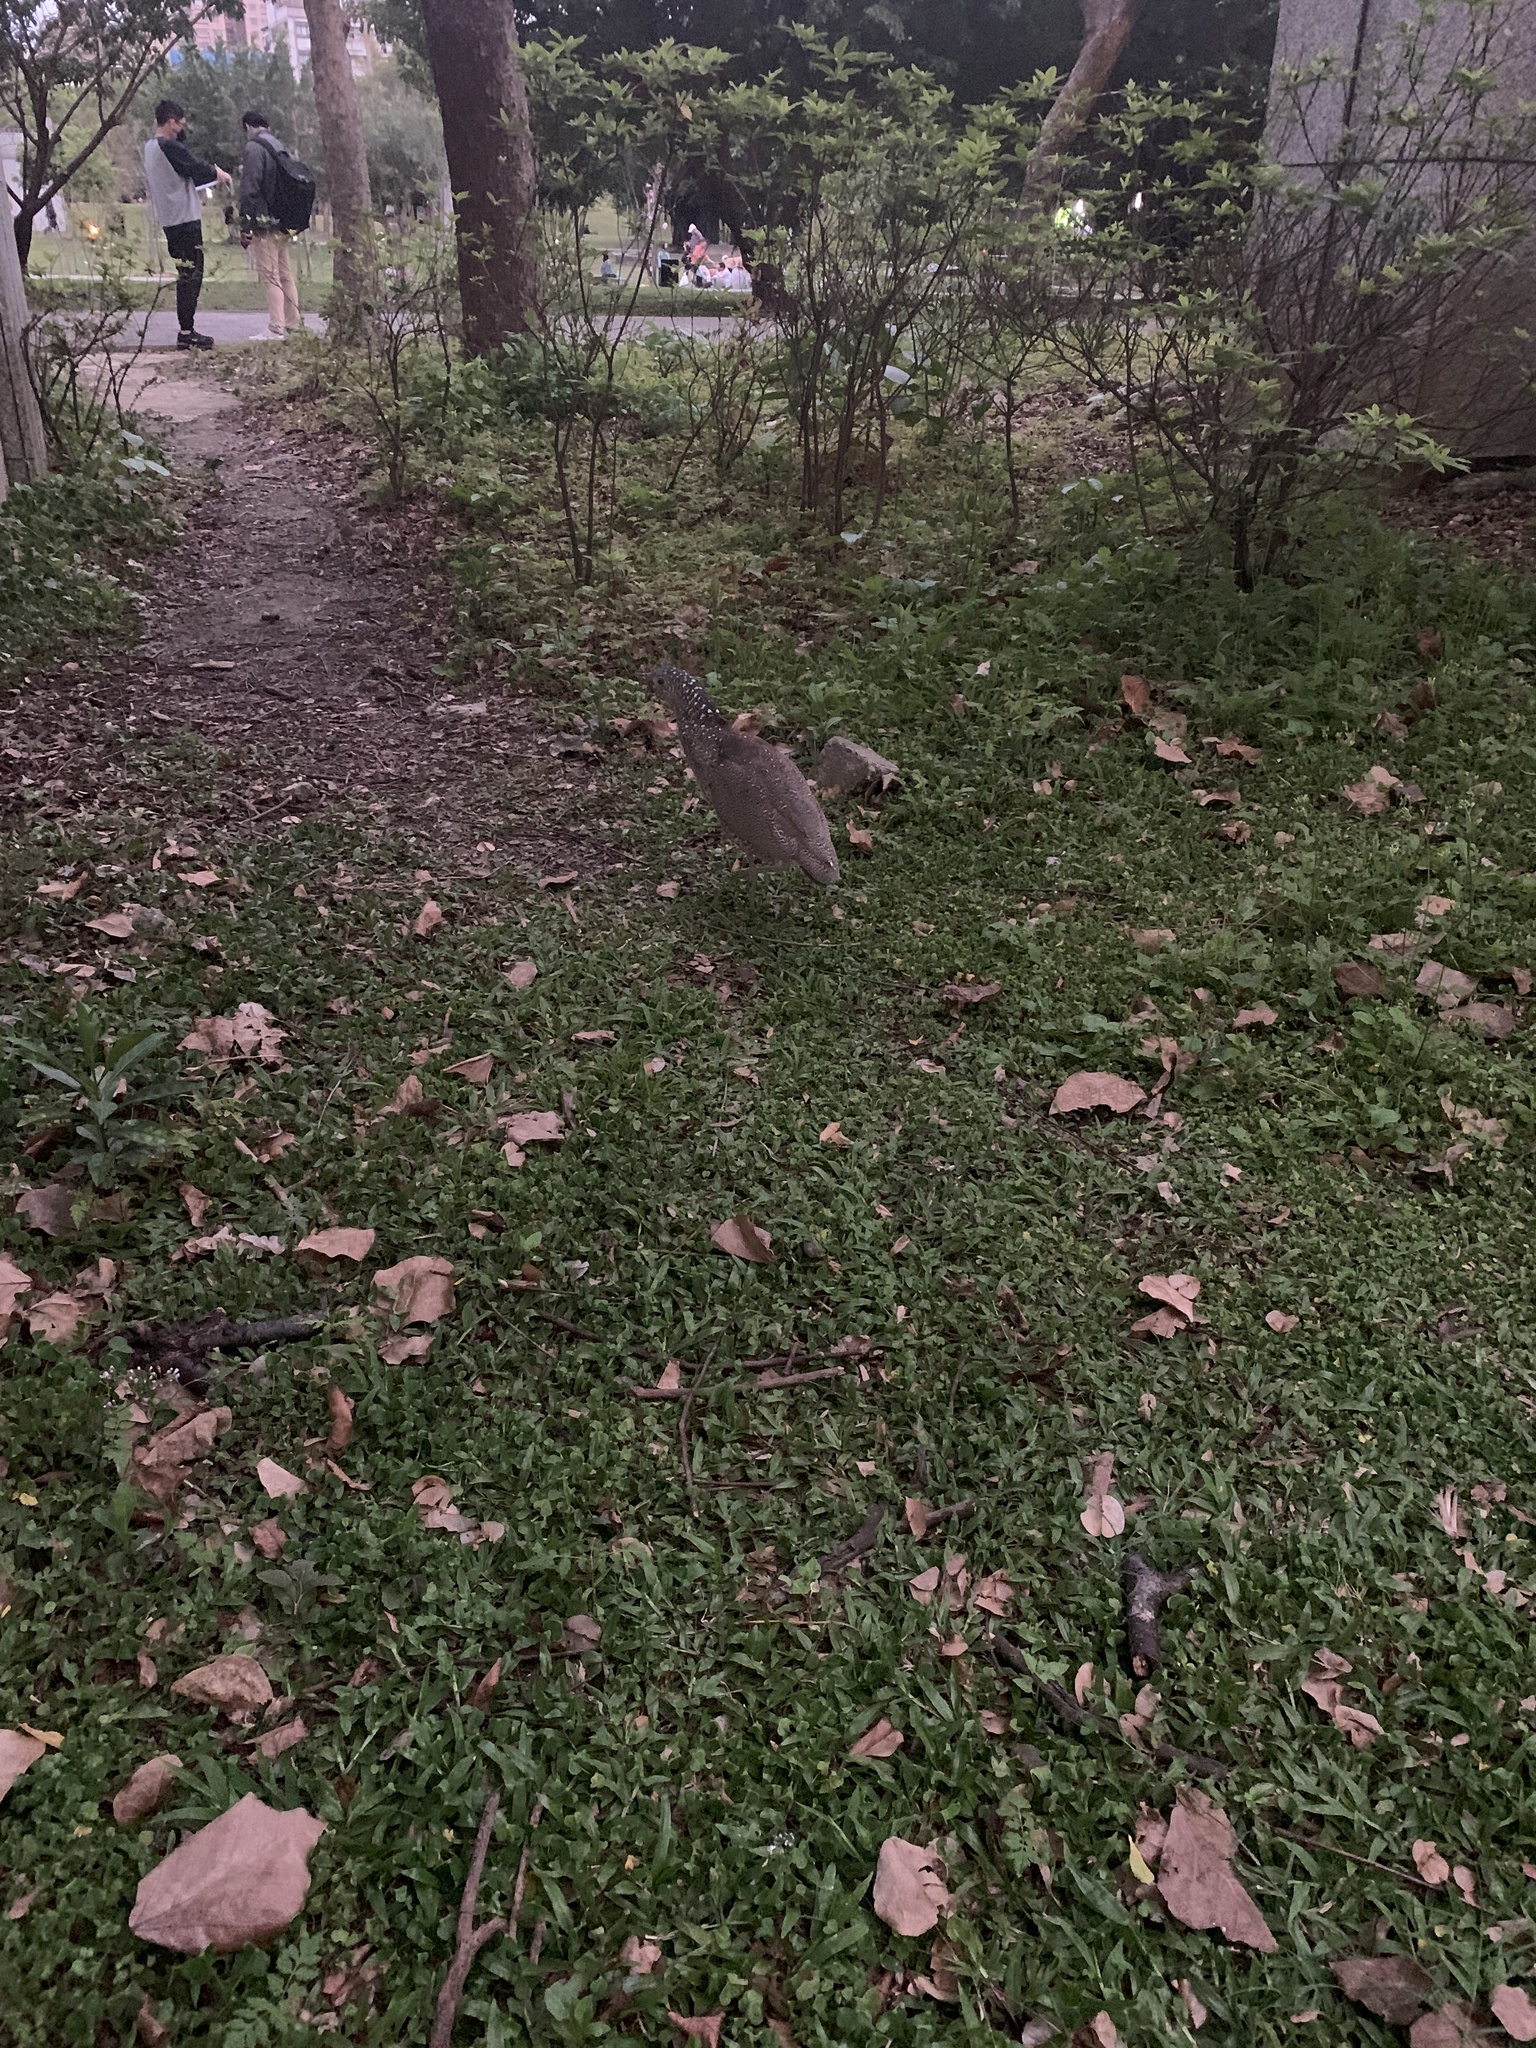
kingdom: Animalia
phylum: Chordata
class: Aves
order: Pelecaniformes
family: Ardeidae
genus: Gorsachius
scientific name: Gorsachius melanolophus
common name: Malayan night heron
